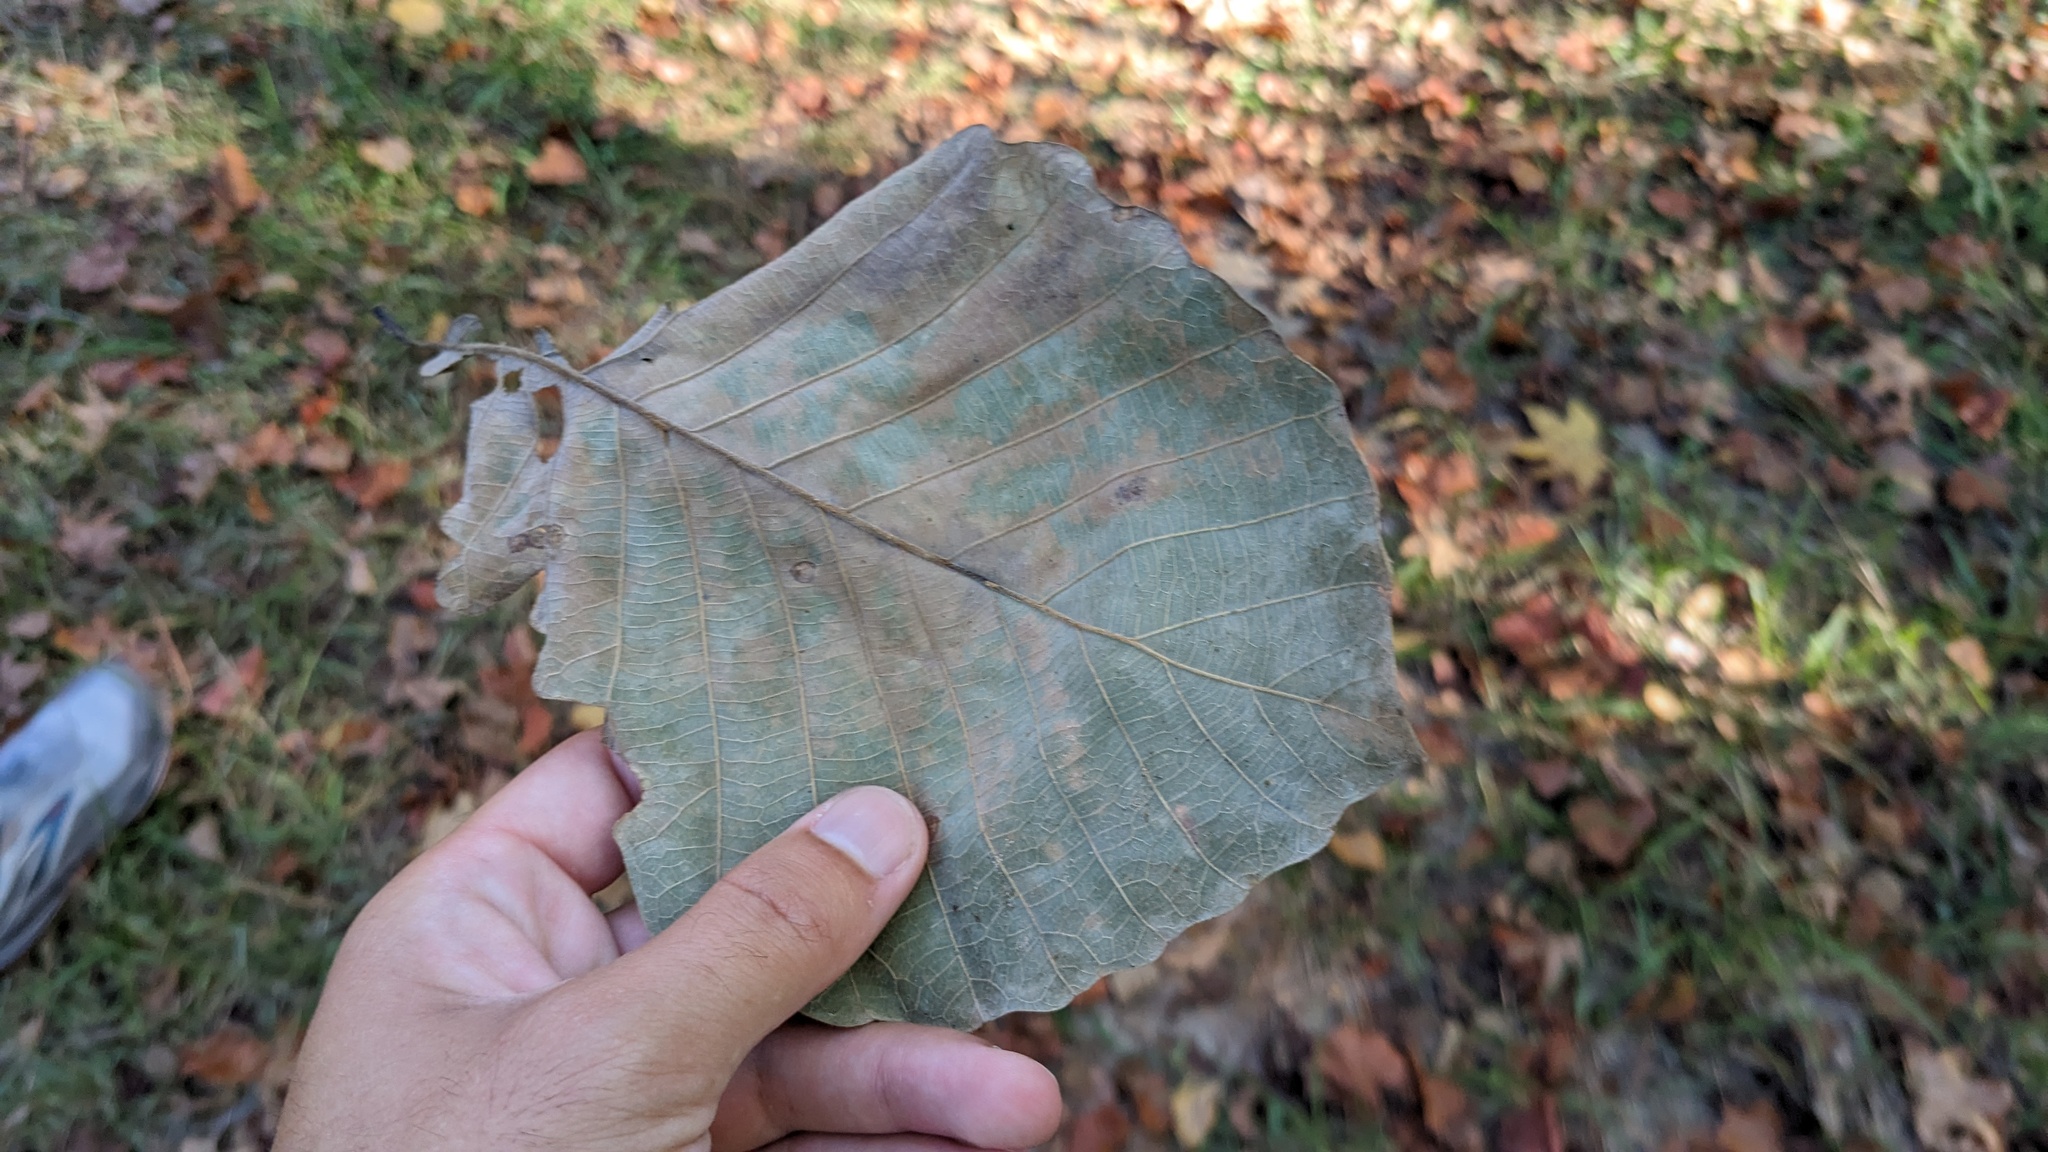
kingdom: Animalia
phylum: Arthropoda
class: Insecta
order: Hymenoptera
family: Cynipidae
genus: Andricus
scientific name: Andricus quercusflocci
